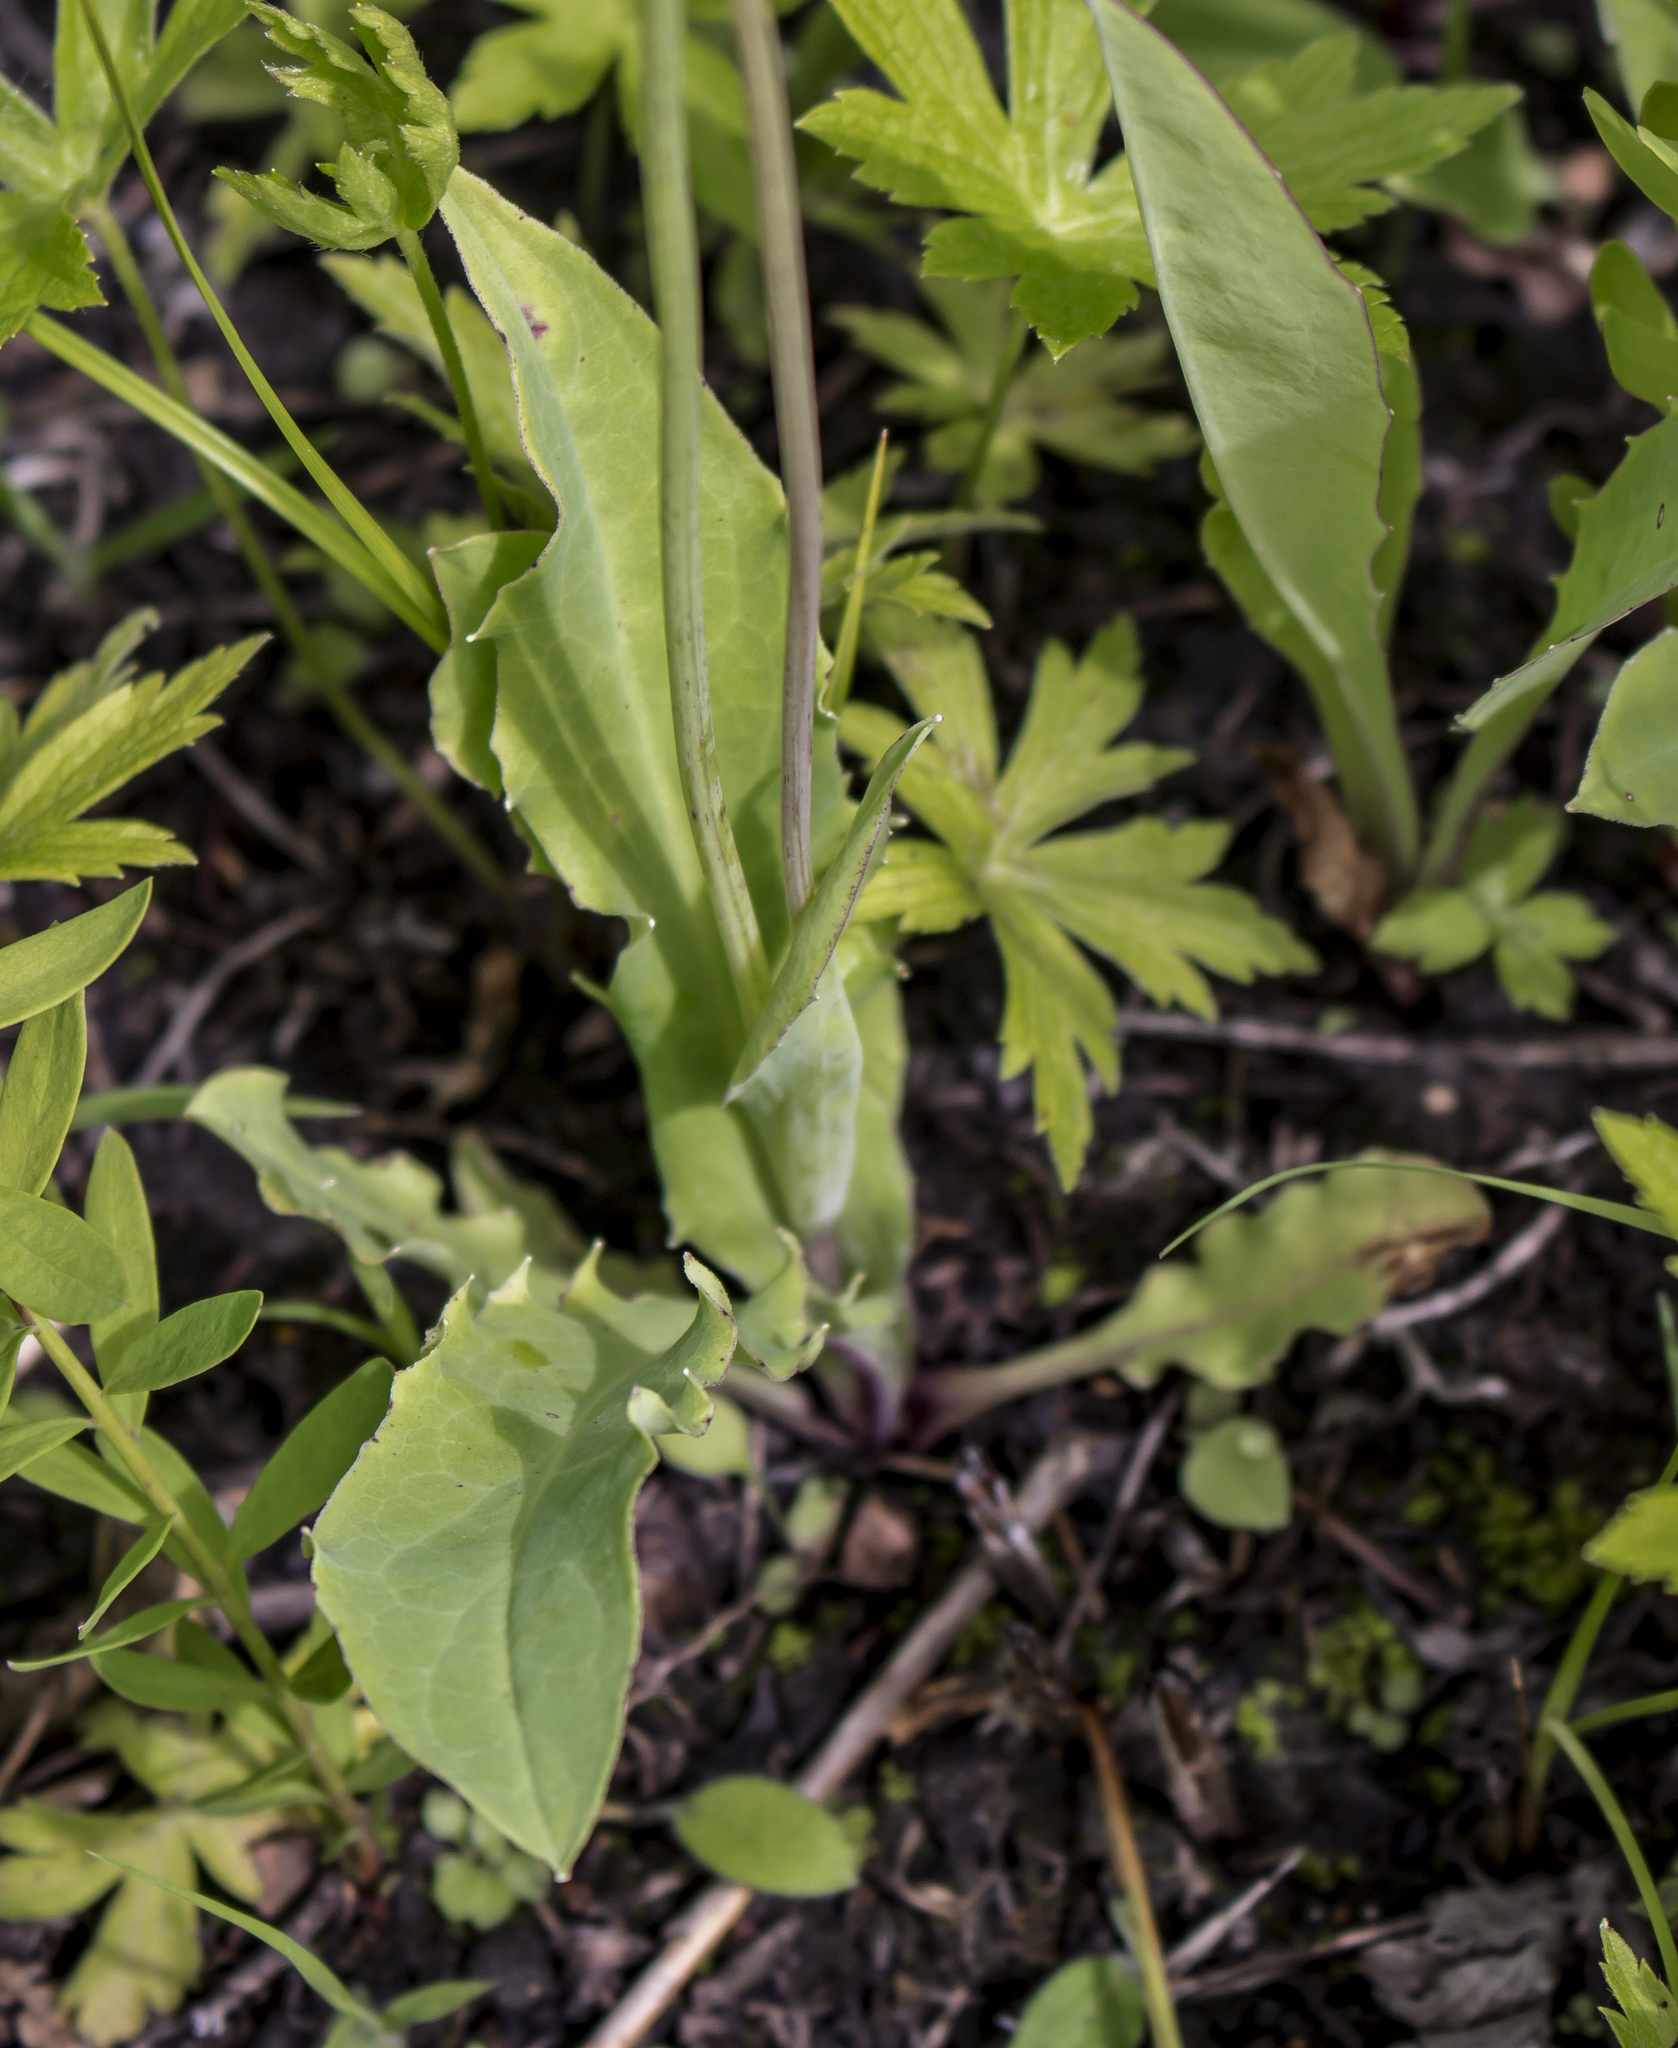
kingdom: Plantae
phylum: Tracheophyta
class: Magnoliopsida
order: Asterales
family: Asteraceae
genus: Krigia
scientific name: Krigia biflora
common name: Orange dwarf-dandelion
